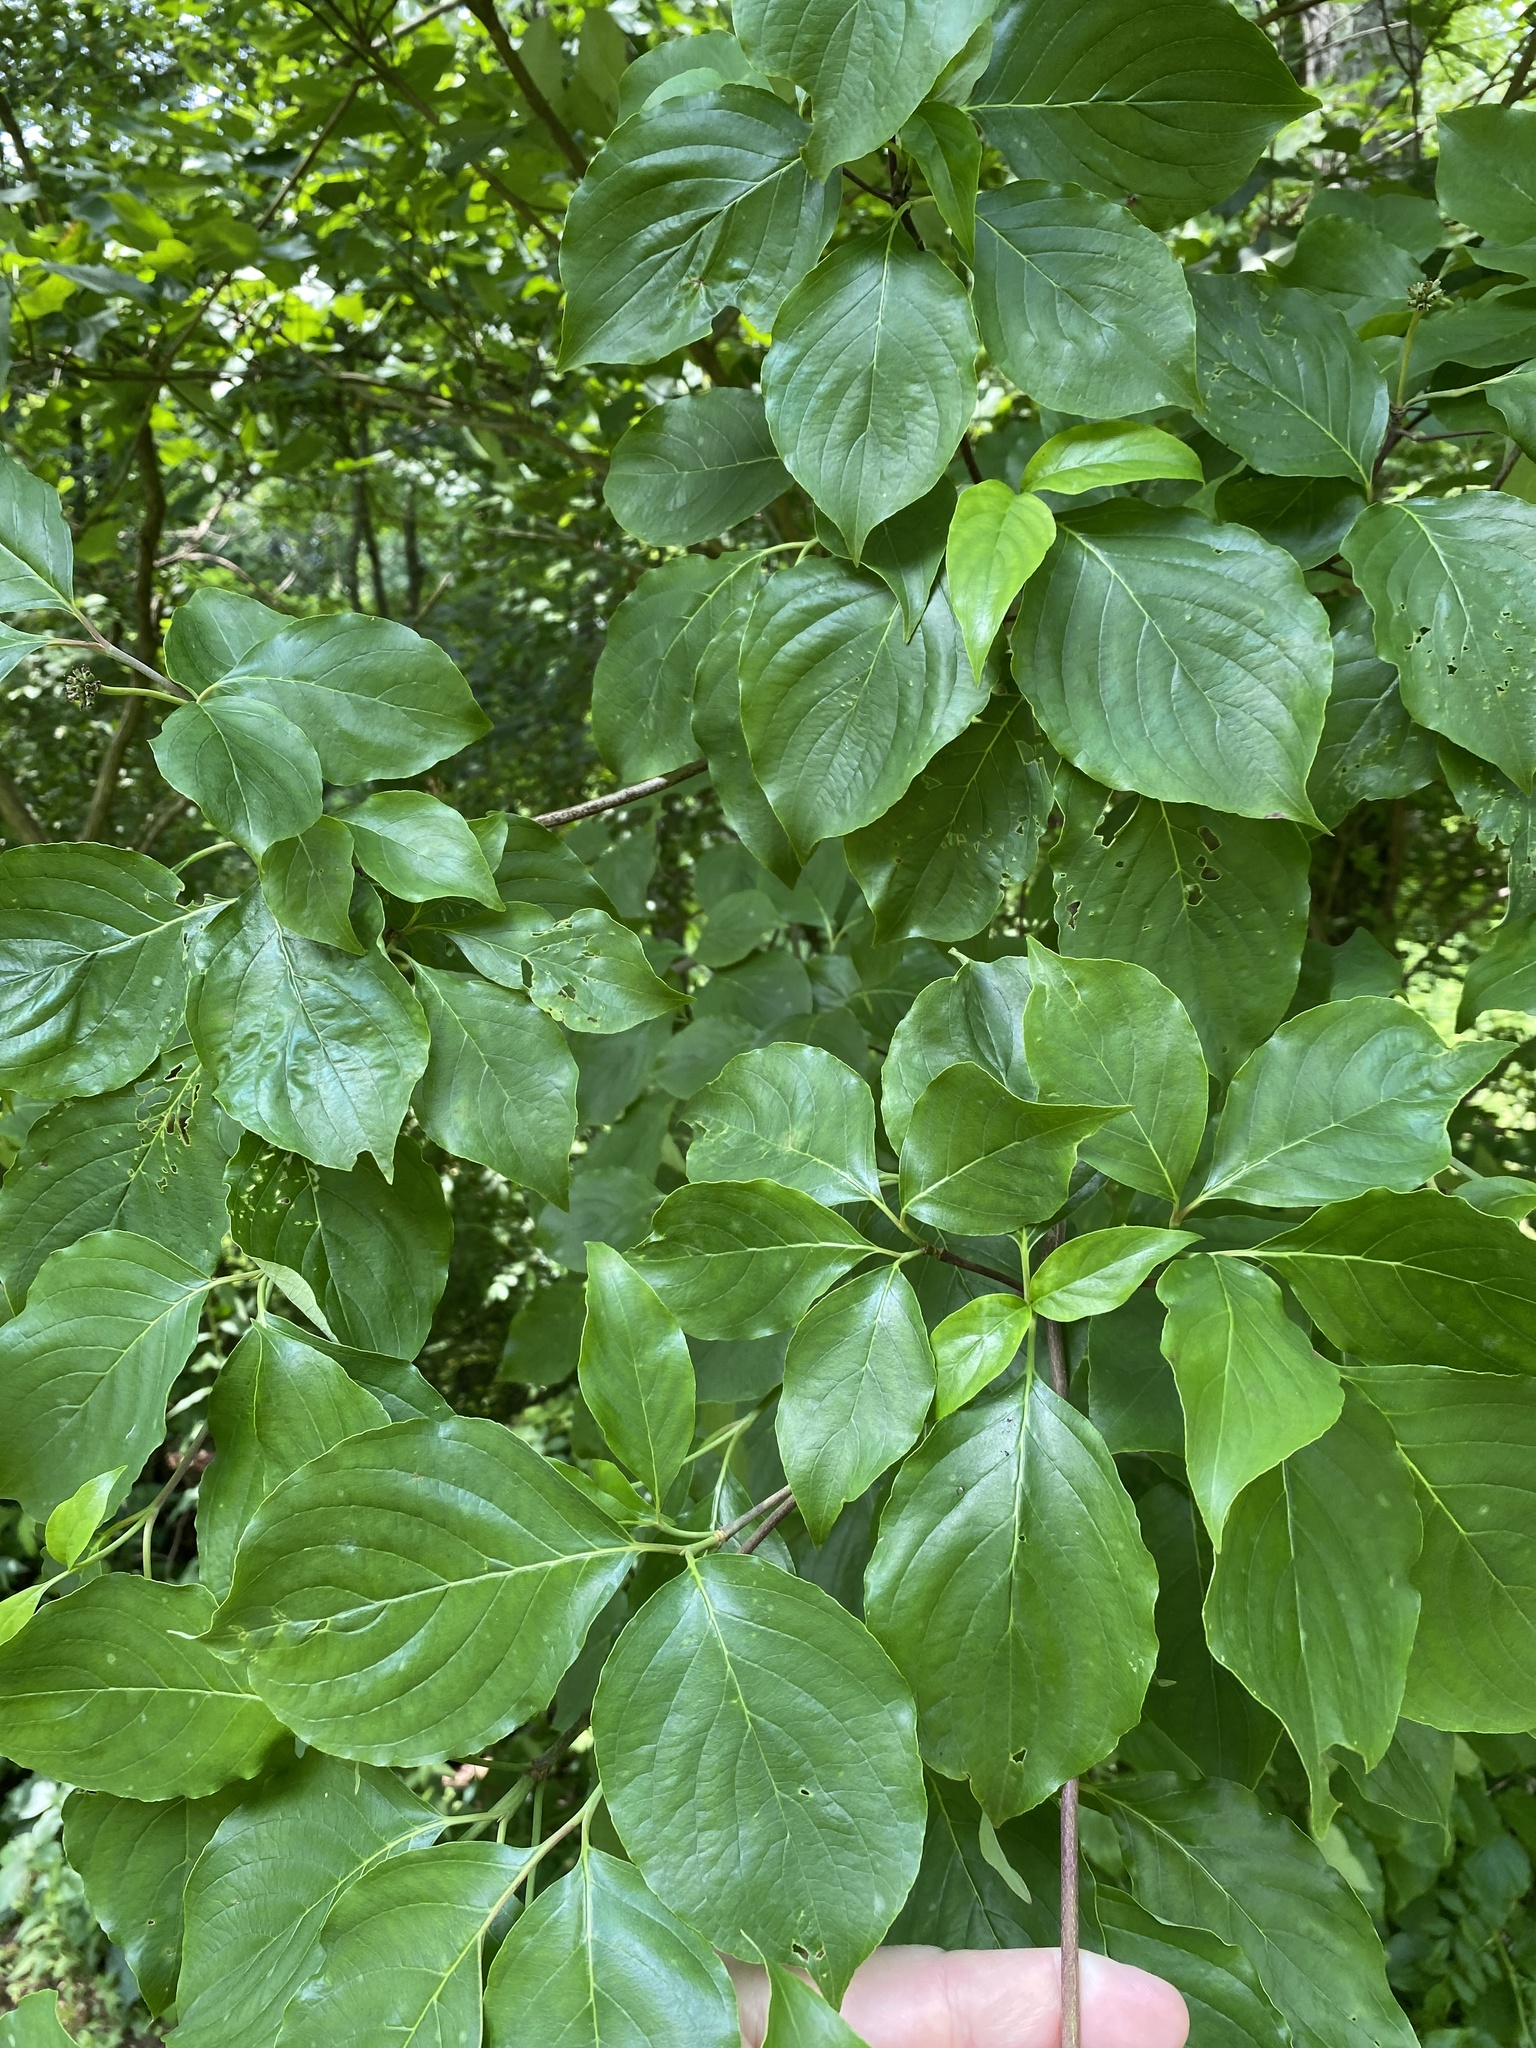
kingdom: Plantae
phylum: Tracheophyta
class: Magnoliopsida
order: Cornales
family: Cornaceae
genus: Cornus
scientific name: Cornus florida
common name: Flowering dogwood
